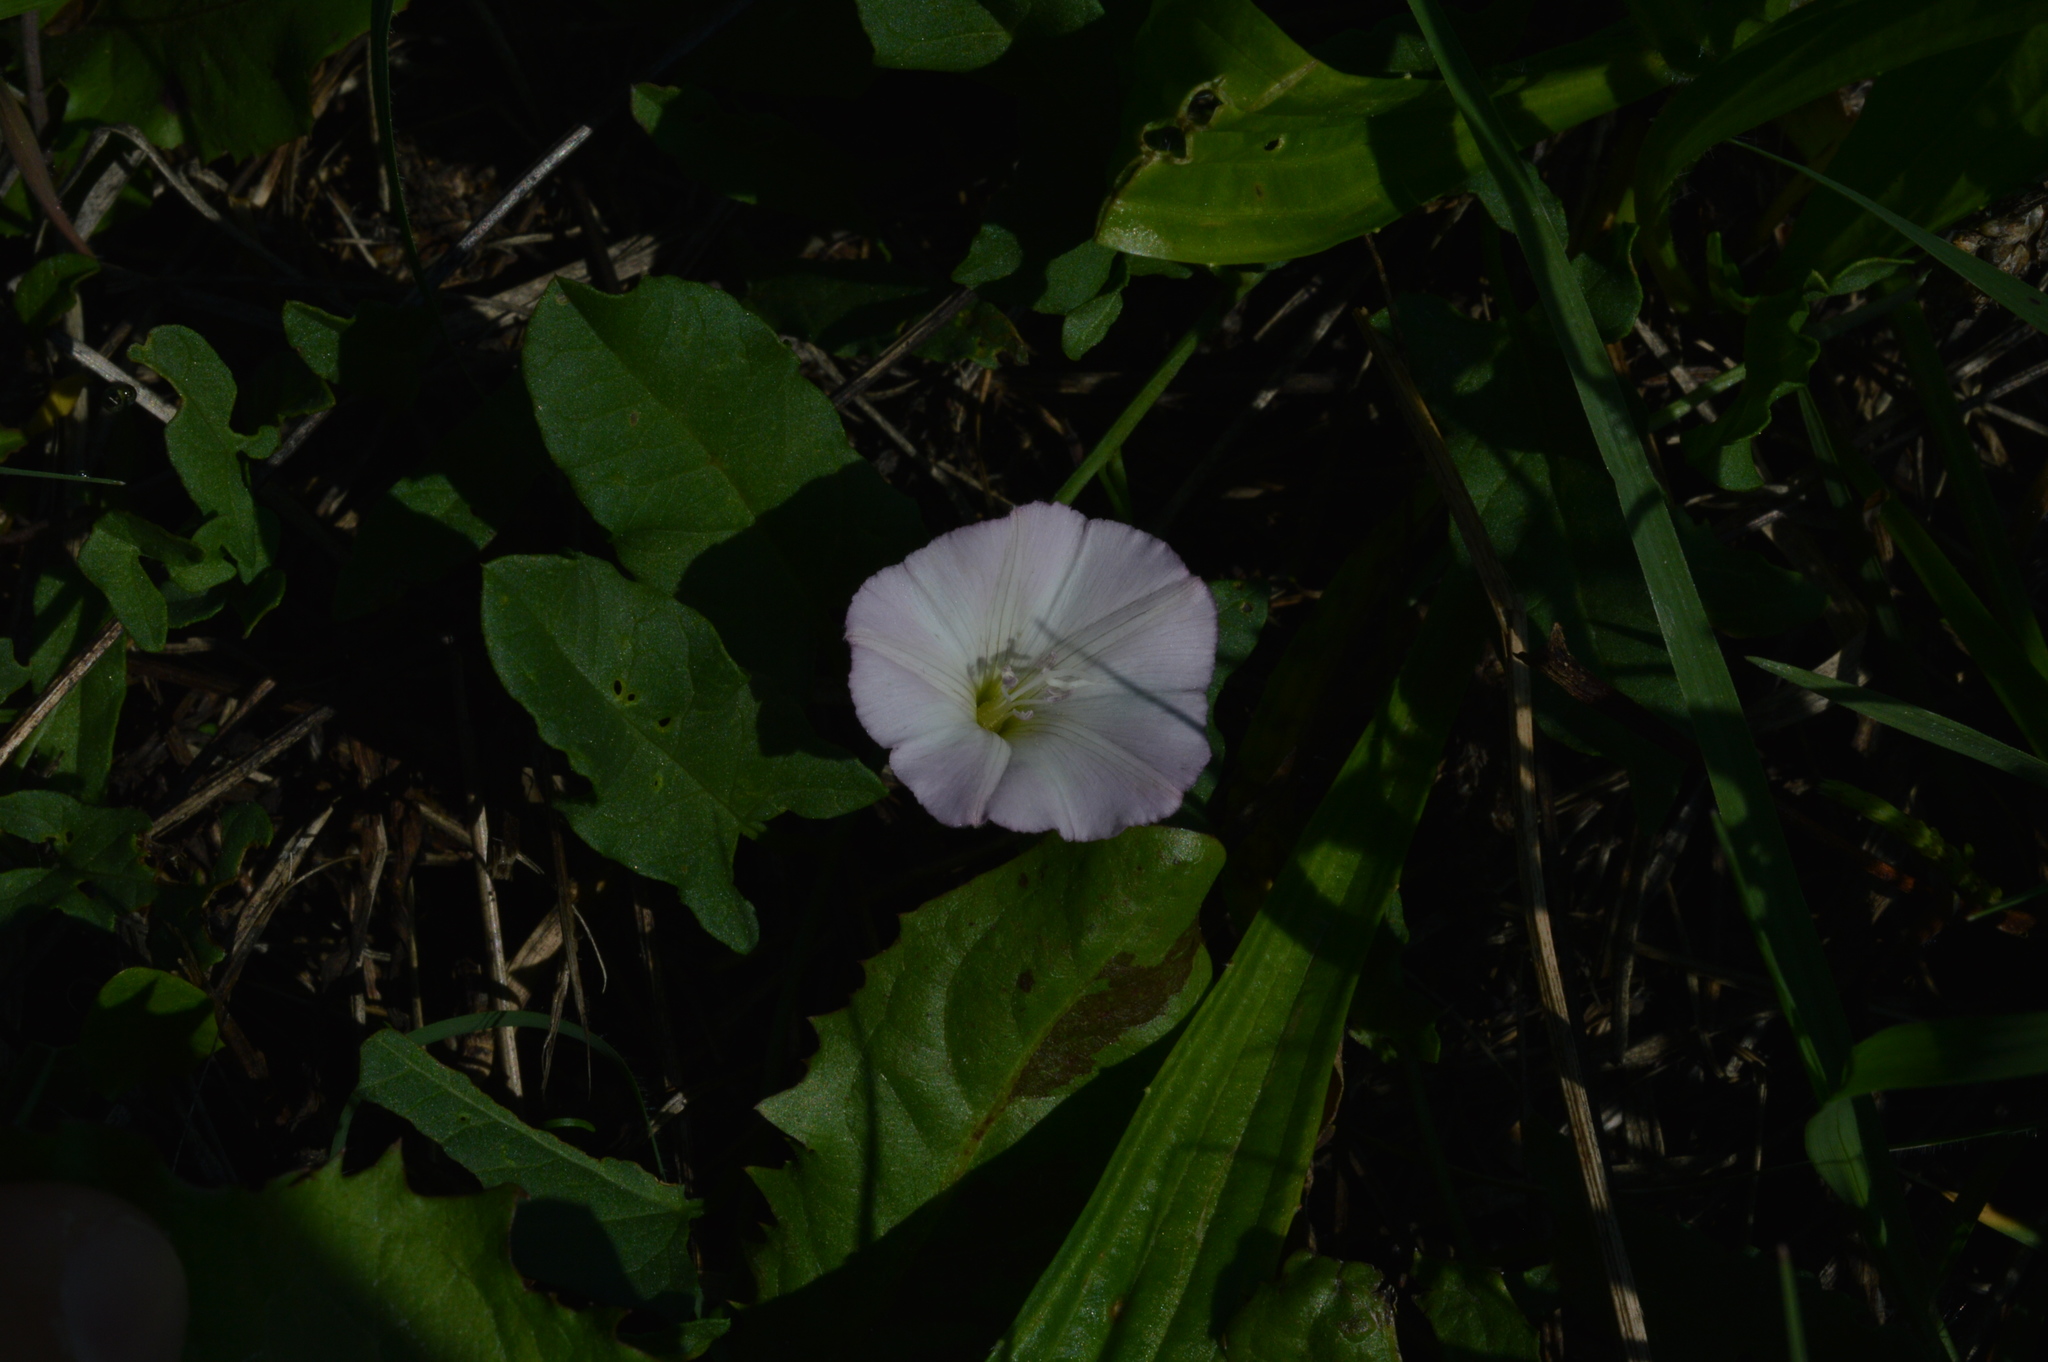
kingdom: Plantae
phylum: Tracheophyta
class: Magnoliopsida
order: Solanales
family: Convolvulaceae
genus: Convolvulus
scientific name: Convolvulus arvensis
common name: Field bindweed
